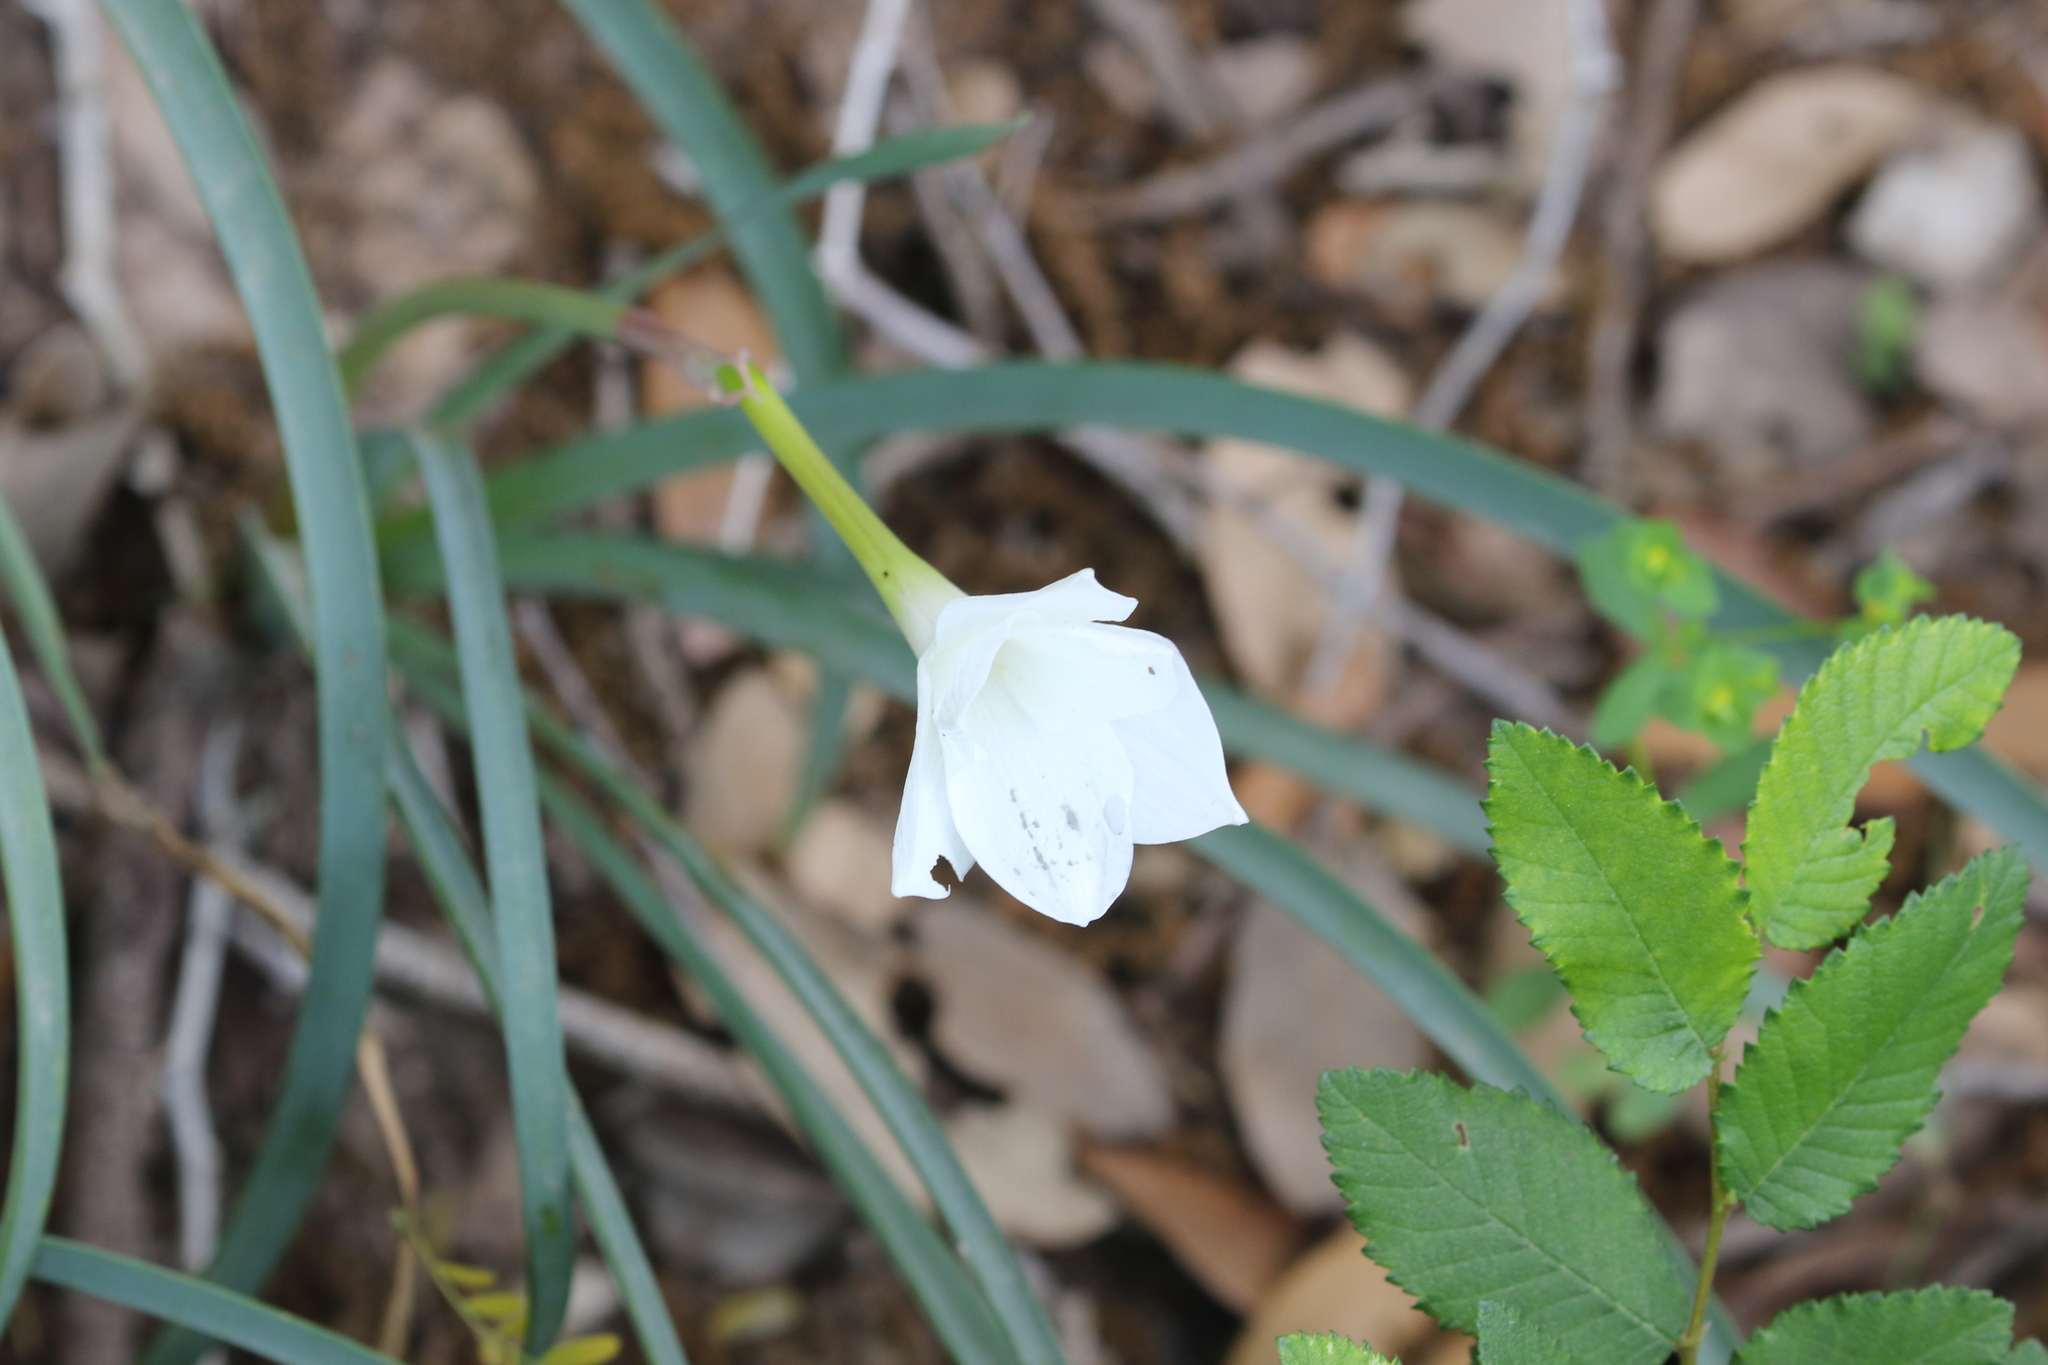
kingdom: Plantae
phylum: Tracheophyta
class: Liliopsida
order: Asparagales
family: Amaryllidaceae
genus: Zephyranthes
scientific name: Zephyranthes drummondii
